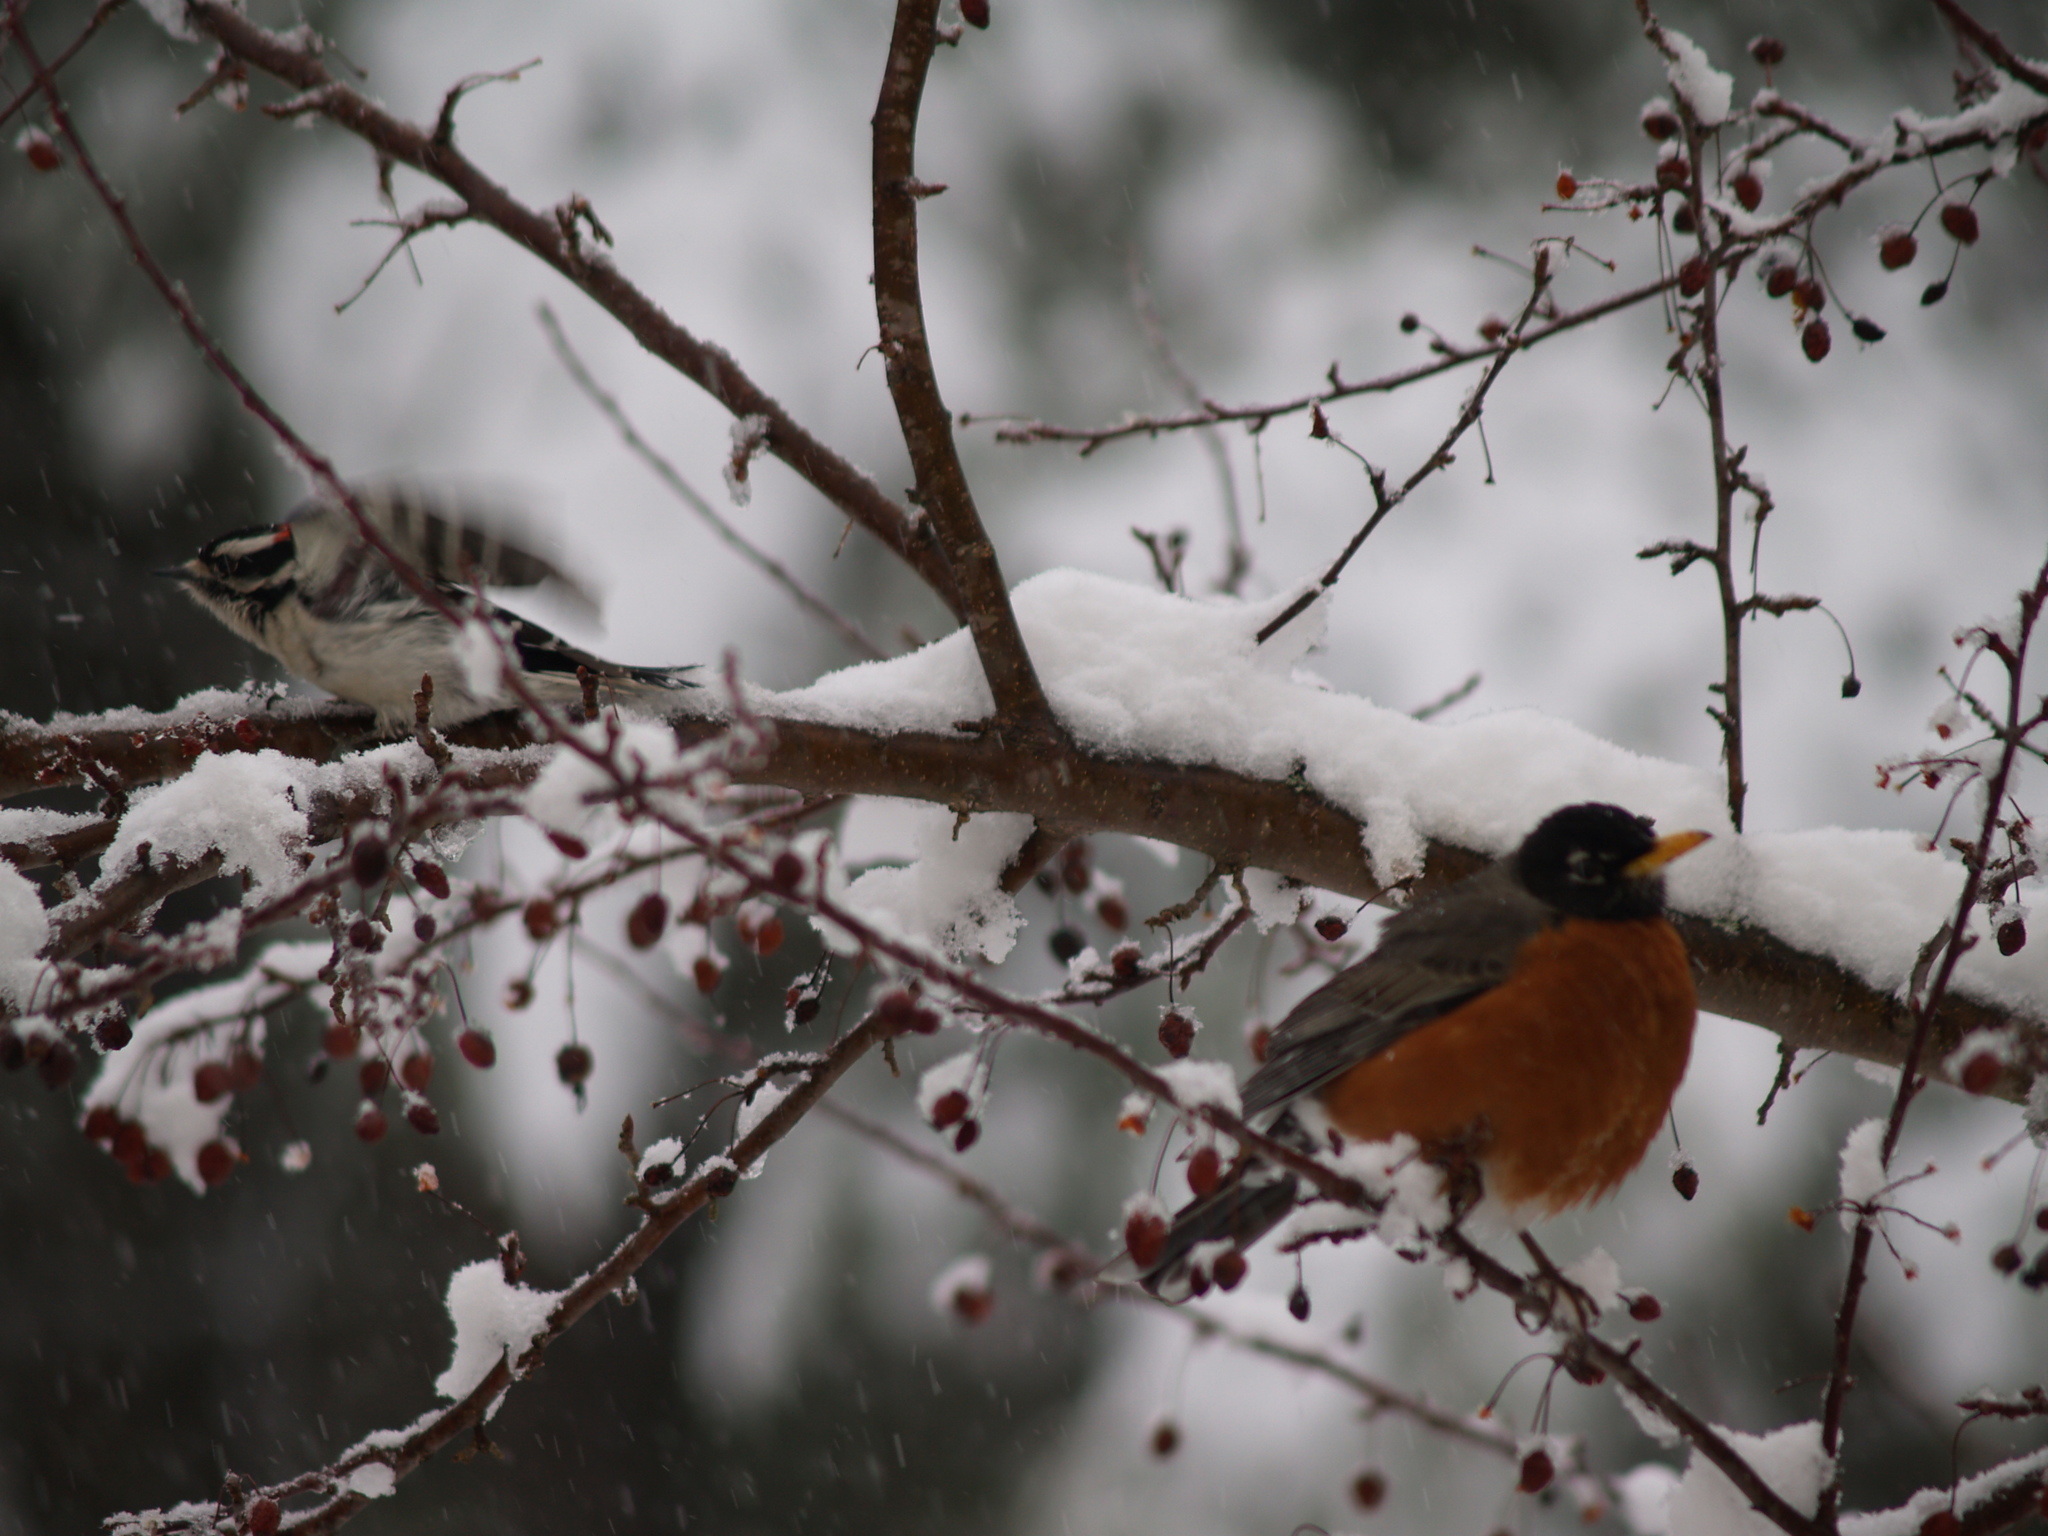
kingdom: Animalia
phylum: Chordata
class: Aves
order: Piciformes
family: Picidae
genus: Dryobates
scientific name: Dryobates pubescens
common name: Downy woodpecker
